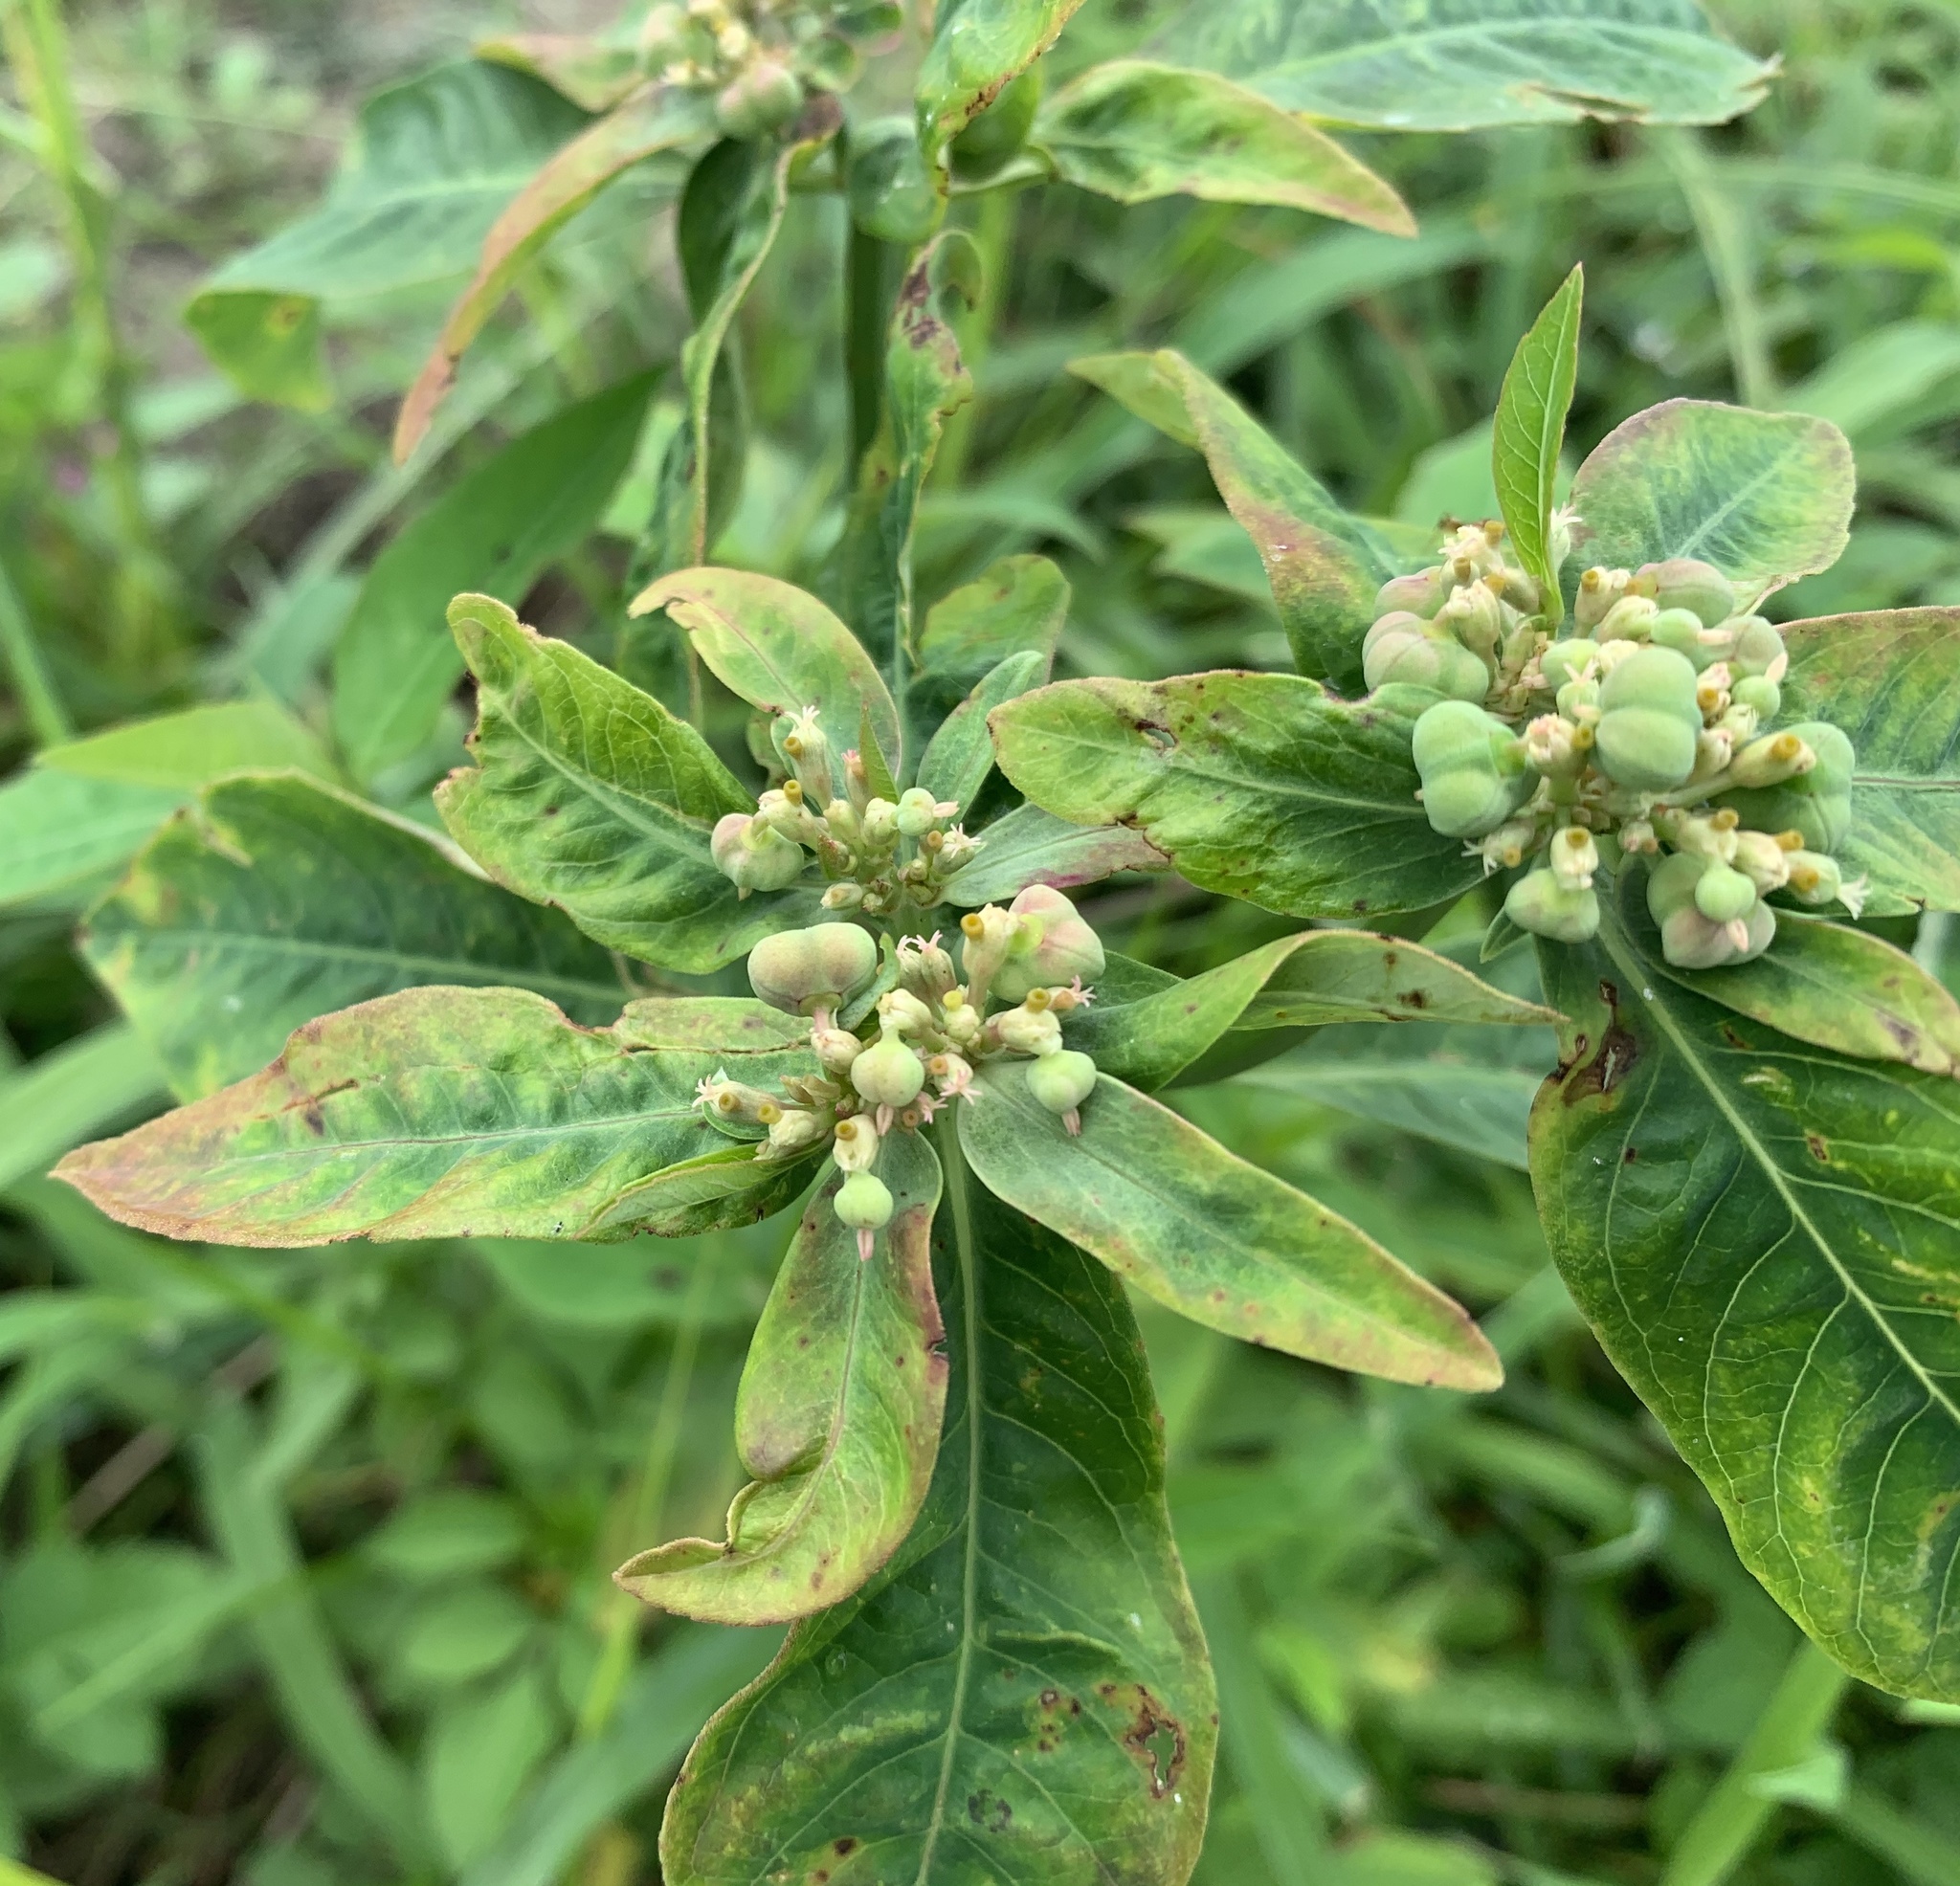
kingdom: Plantae
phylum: Tracheophyta
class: Magnoliopsida
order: Malpighiales
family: Euphorbiaceae
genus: Euphorbia
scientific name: Euphorbia heterophylla
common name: Mexican fireplant
